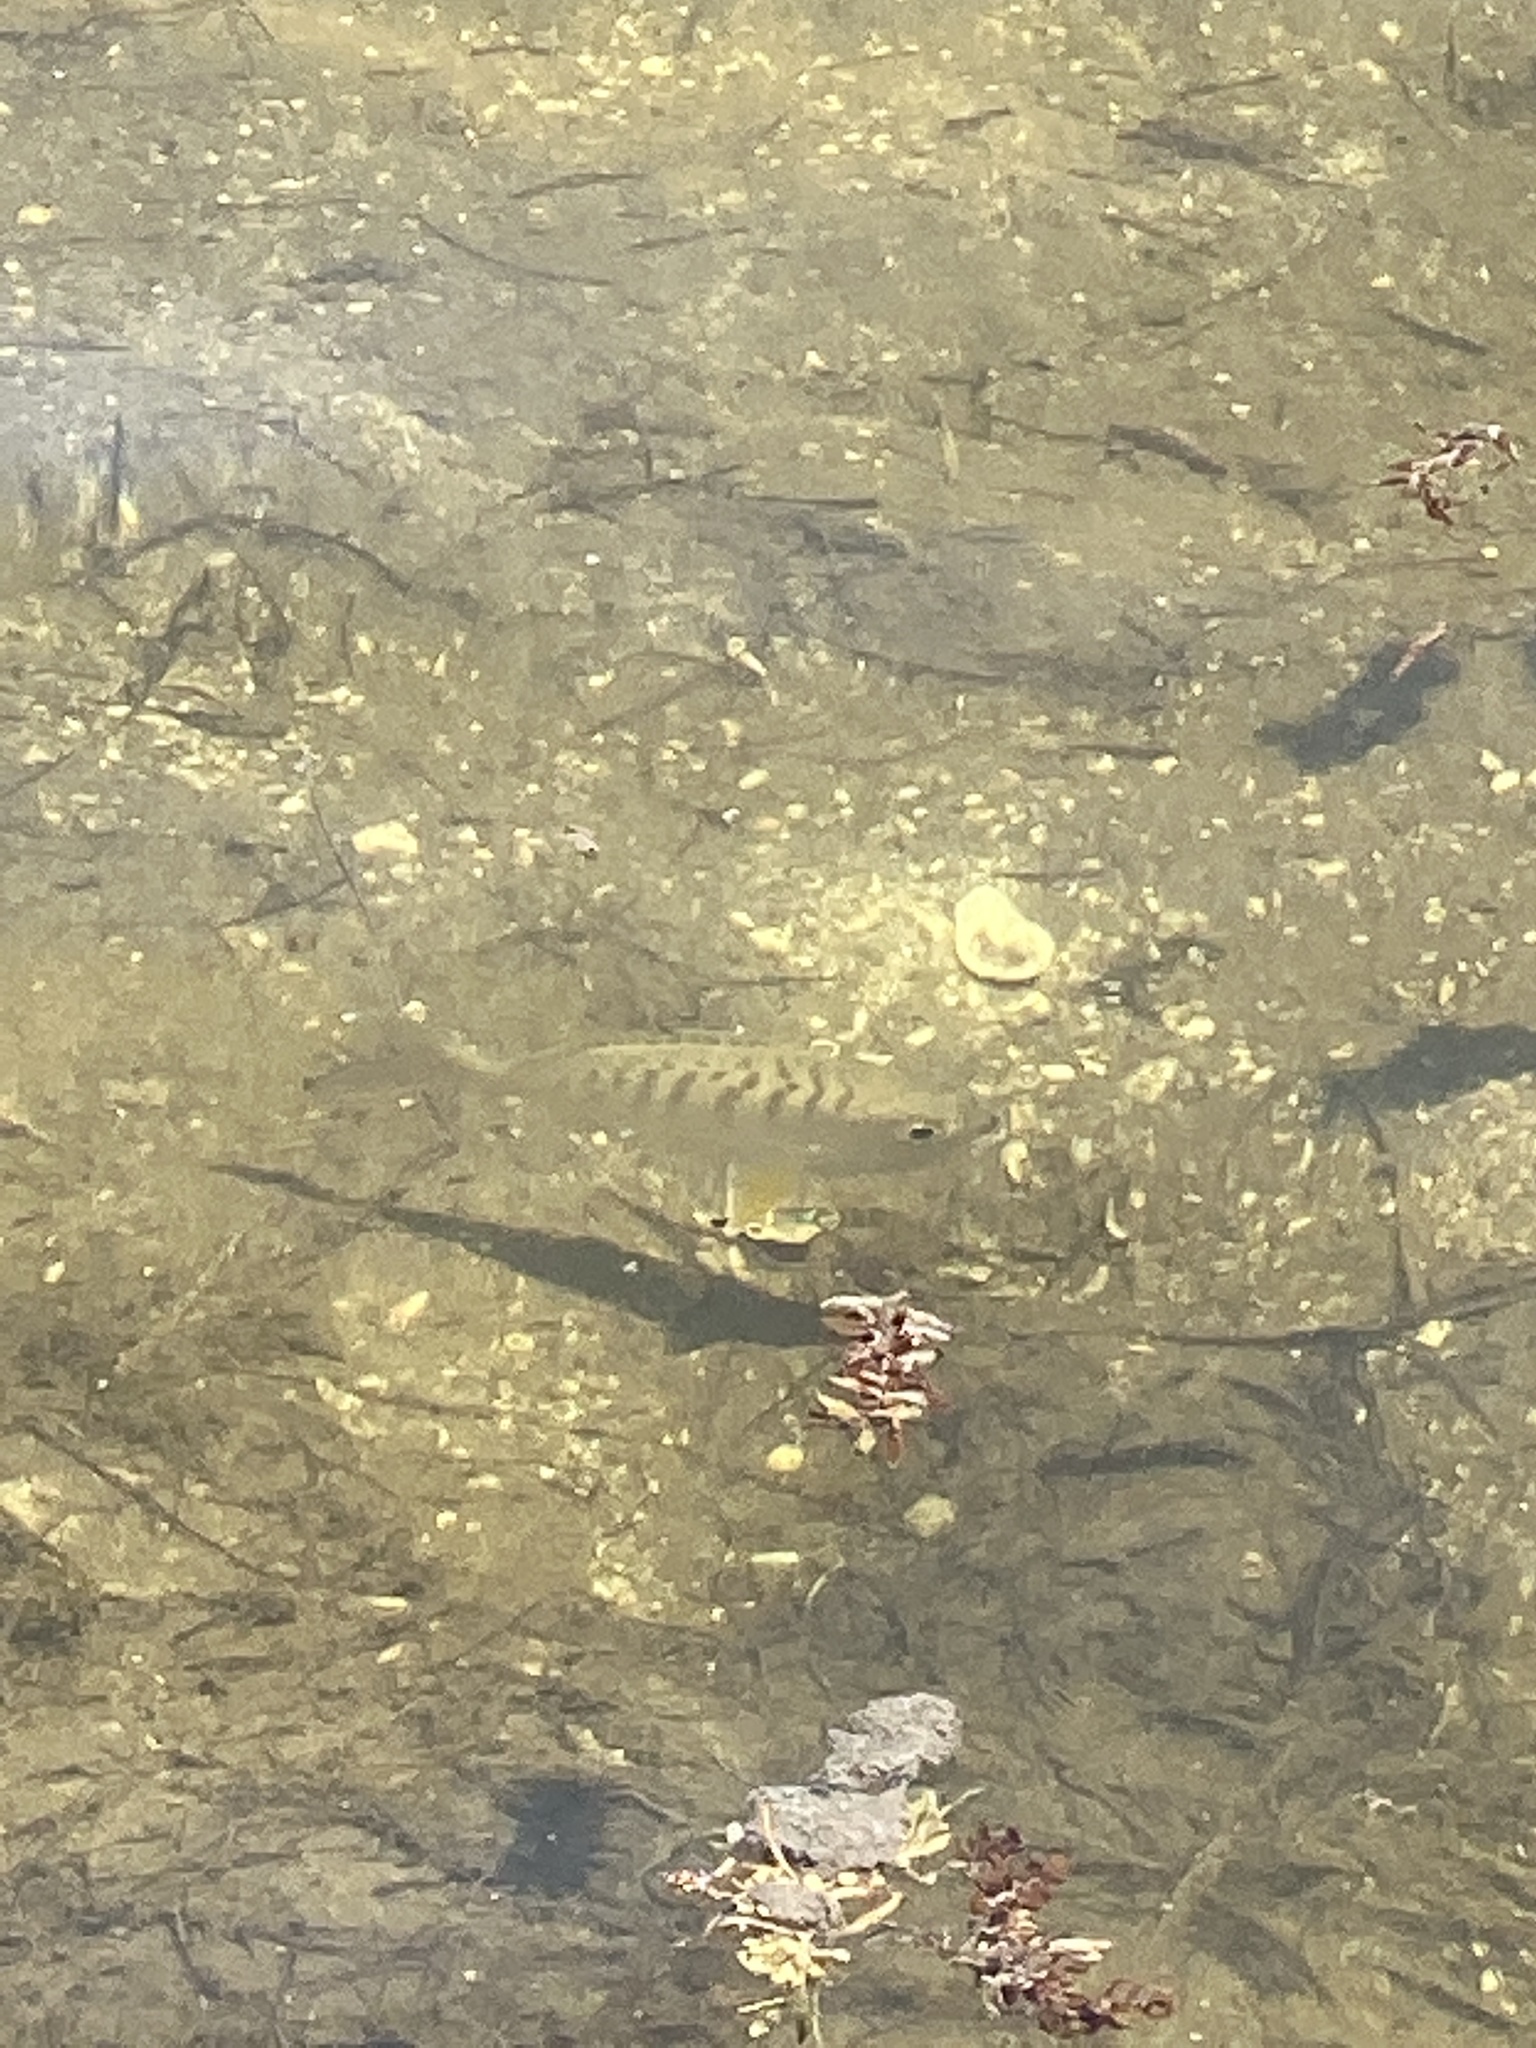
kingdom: Animalia
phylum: Chordata
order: Perciformes
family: Gerreidae
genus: Gerres
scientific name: Gerres cinereus
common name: Hedow
